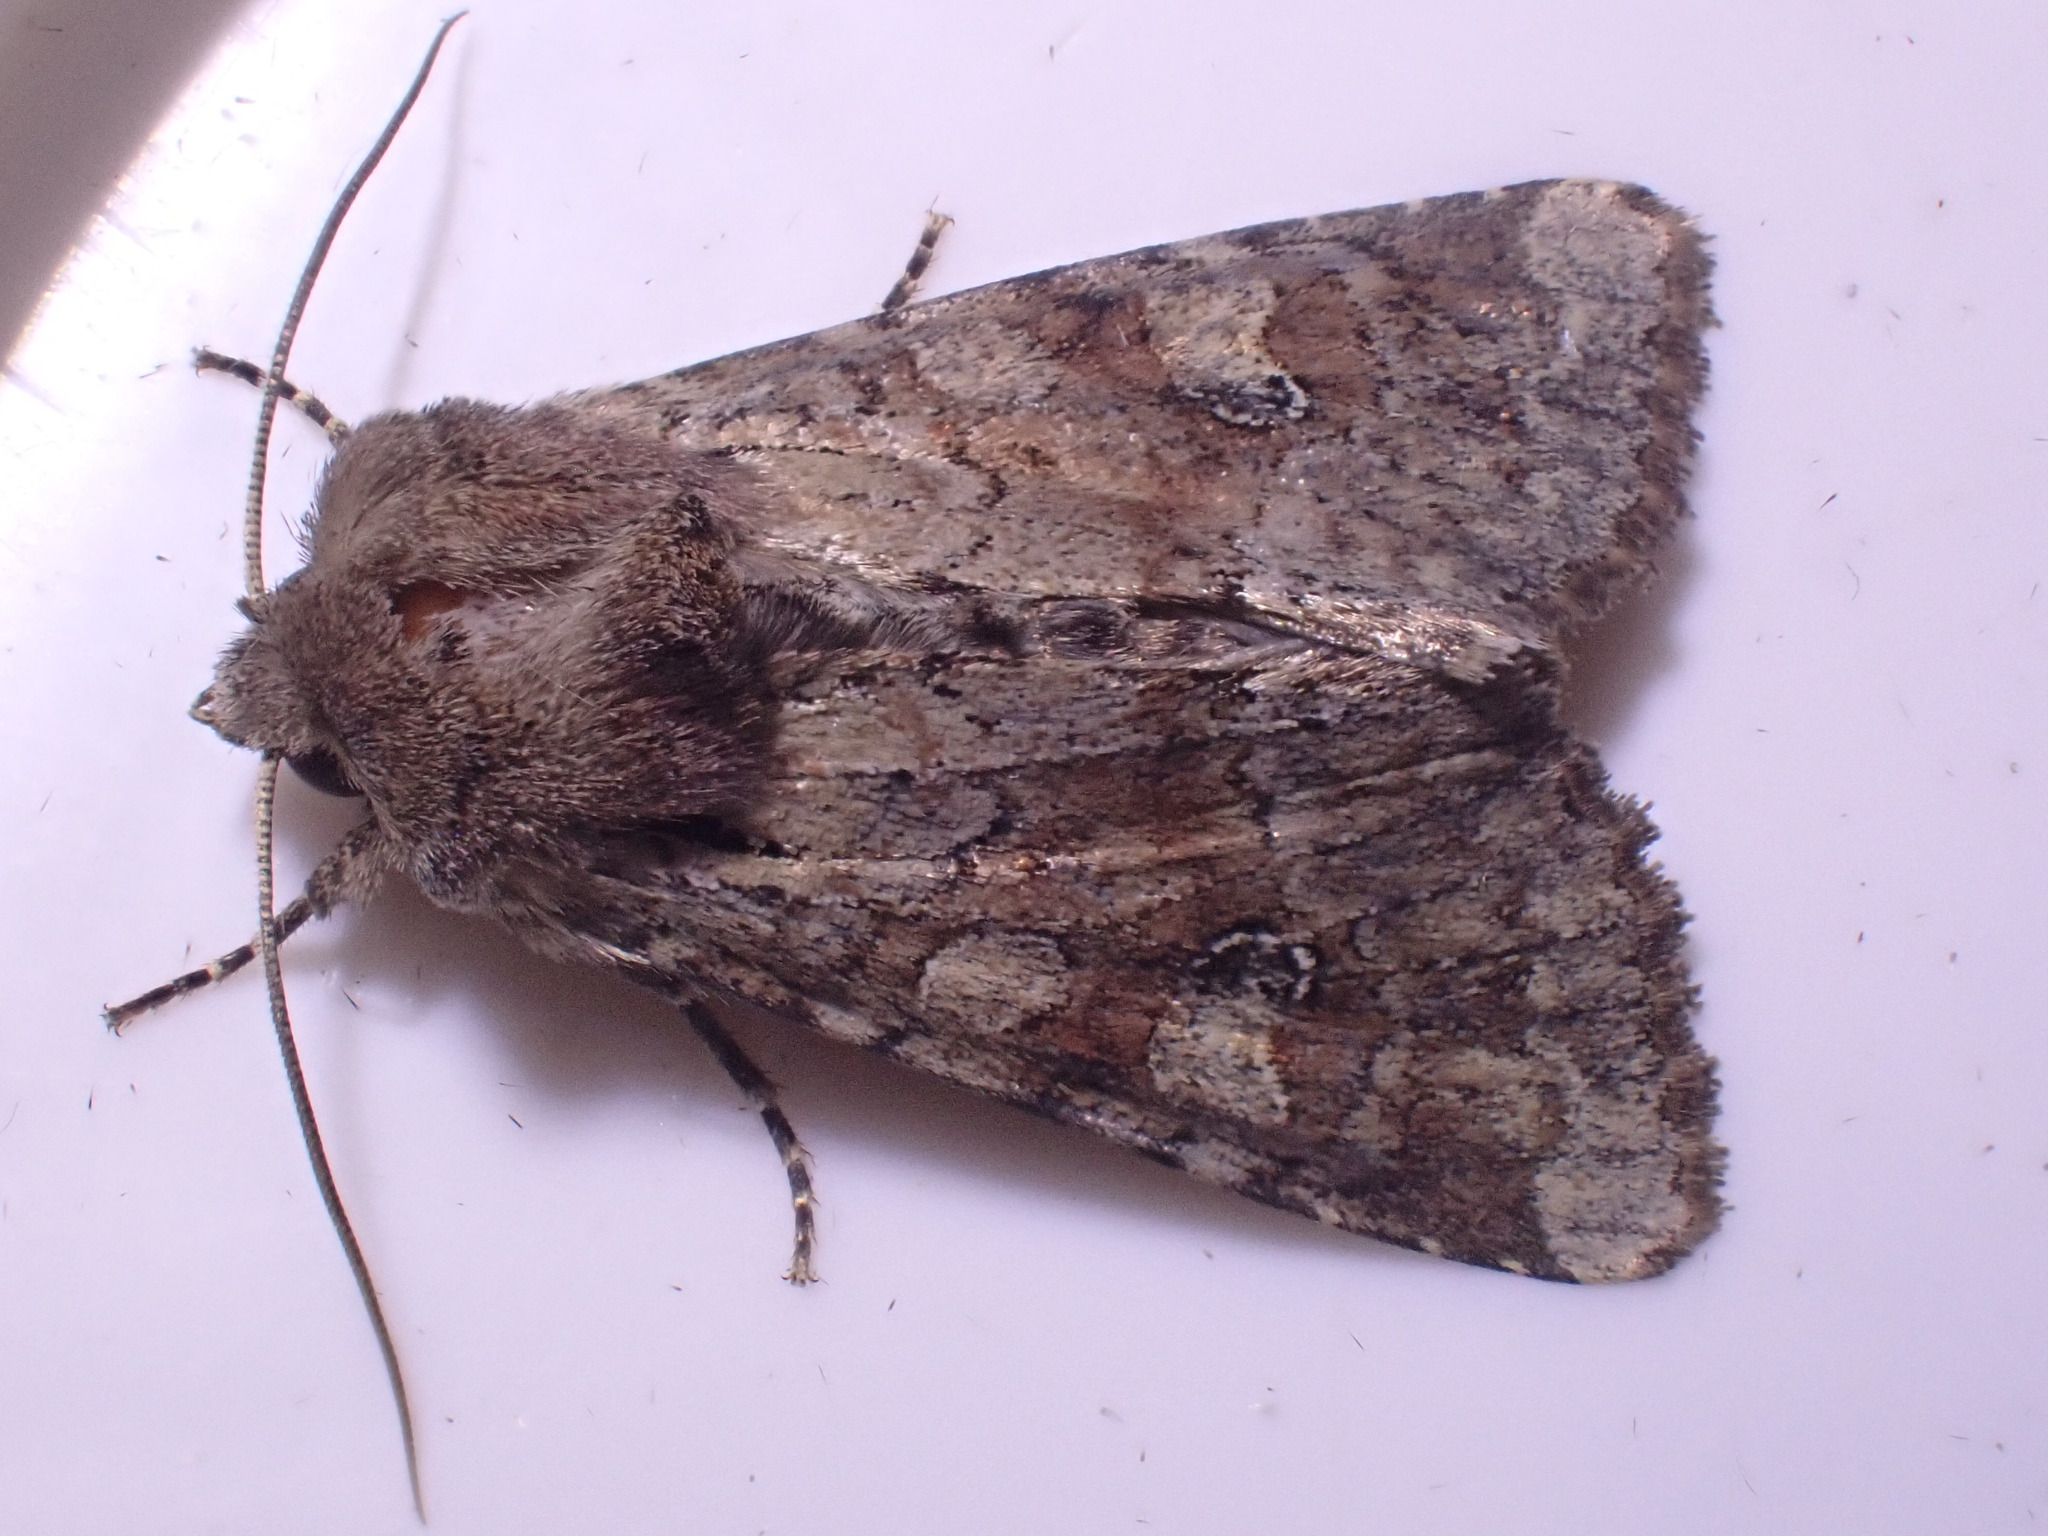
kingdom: Animalia
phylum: Arthropoda
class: Insecta
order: Lepidoptera
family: Noctuidae
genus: Apamea
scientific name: Apamea sordens
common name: Rustic shoulder-knot
